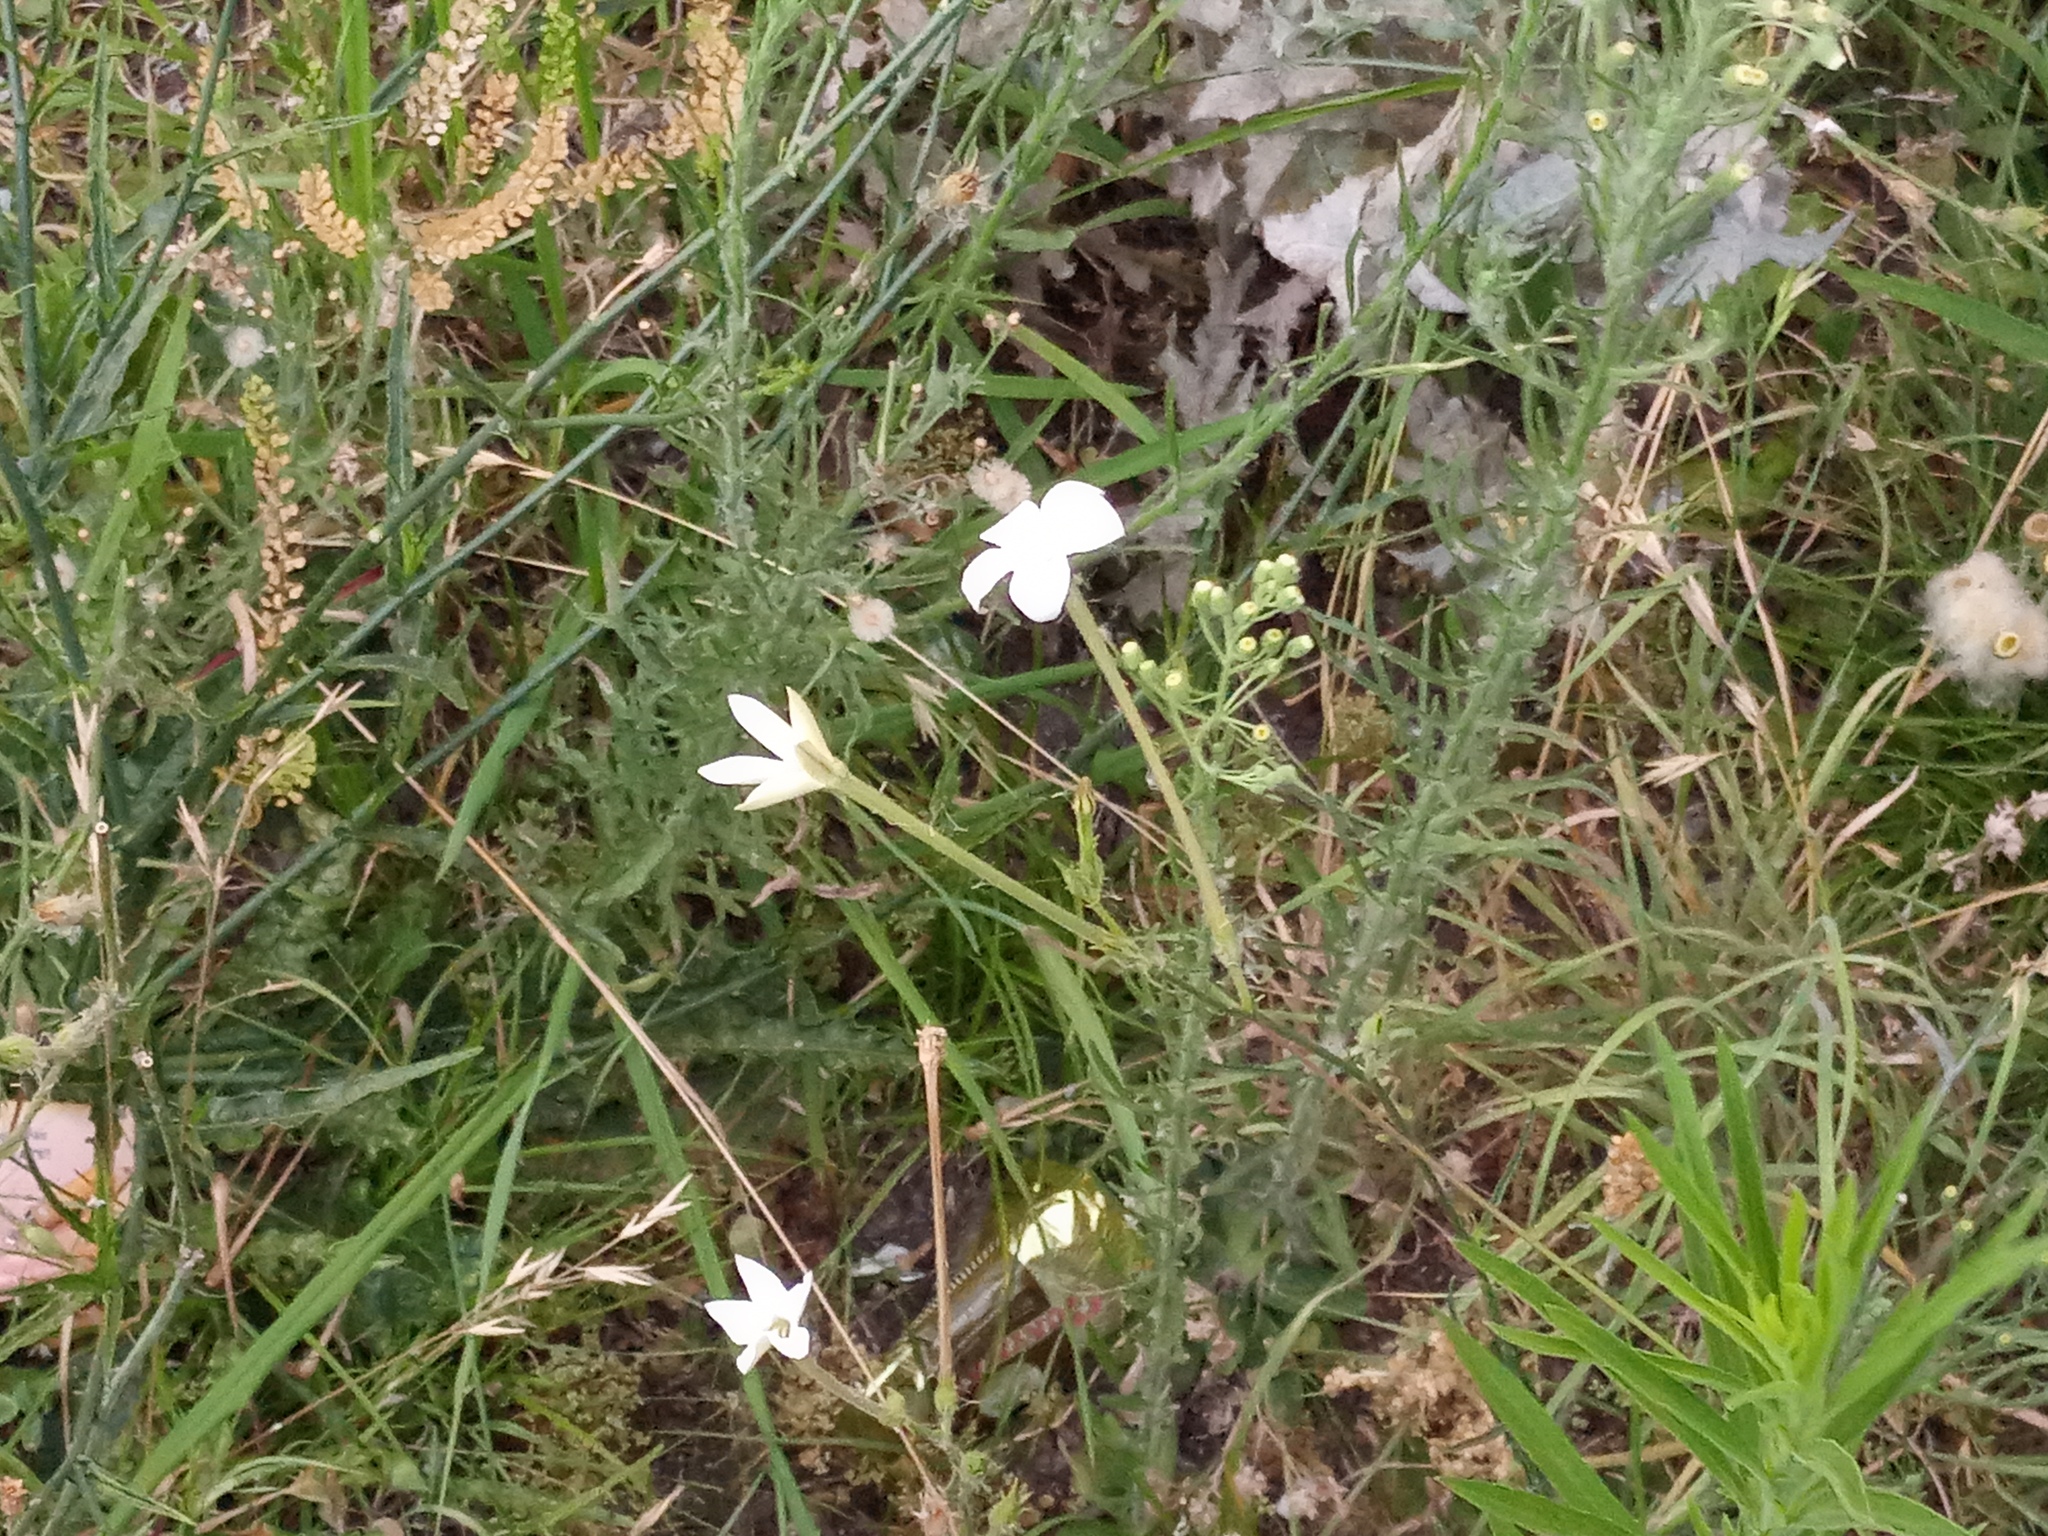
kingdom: Plantae
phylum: Tracheophyta
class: Magnoliopsida
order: Solanales
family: Solanaceae
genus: Nicotiana
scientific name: Nicotiana longiflora
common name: Long-flowered tobacco
